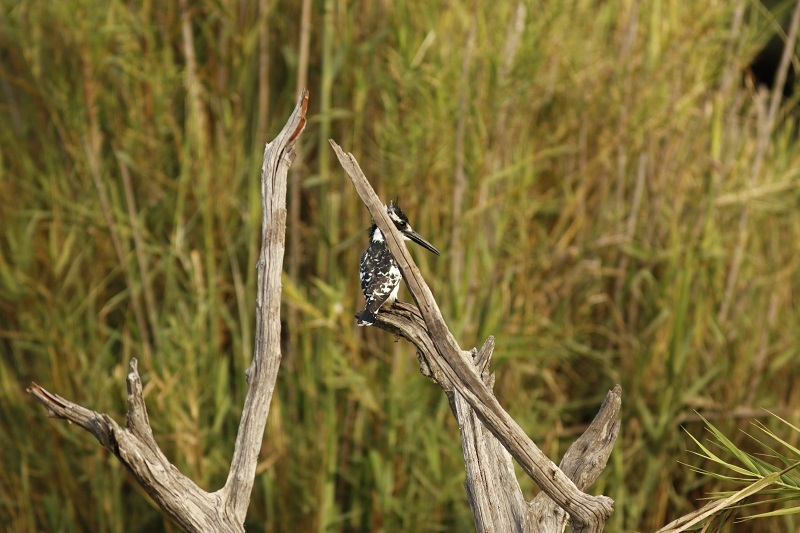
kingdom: Animalia
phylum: Chordata
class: Aves
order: Coraciiformes
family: Alcedinidae
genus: Ceryle
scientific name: Ceryle rudis
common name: Pied kingfisher
